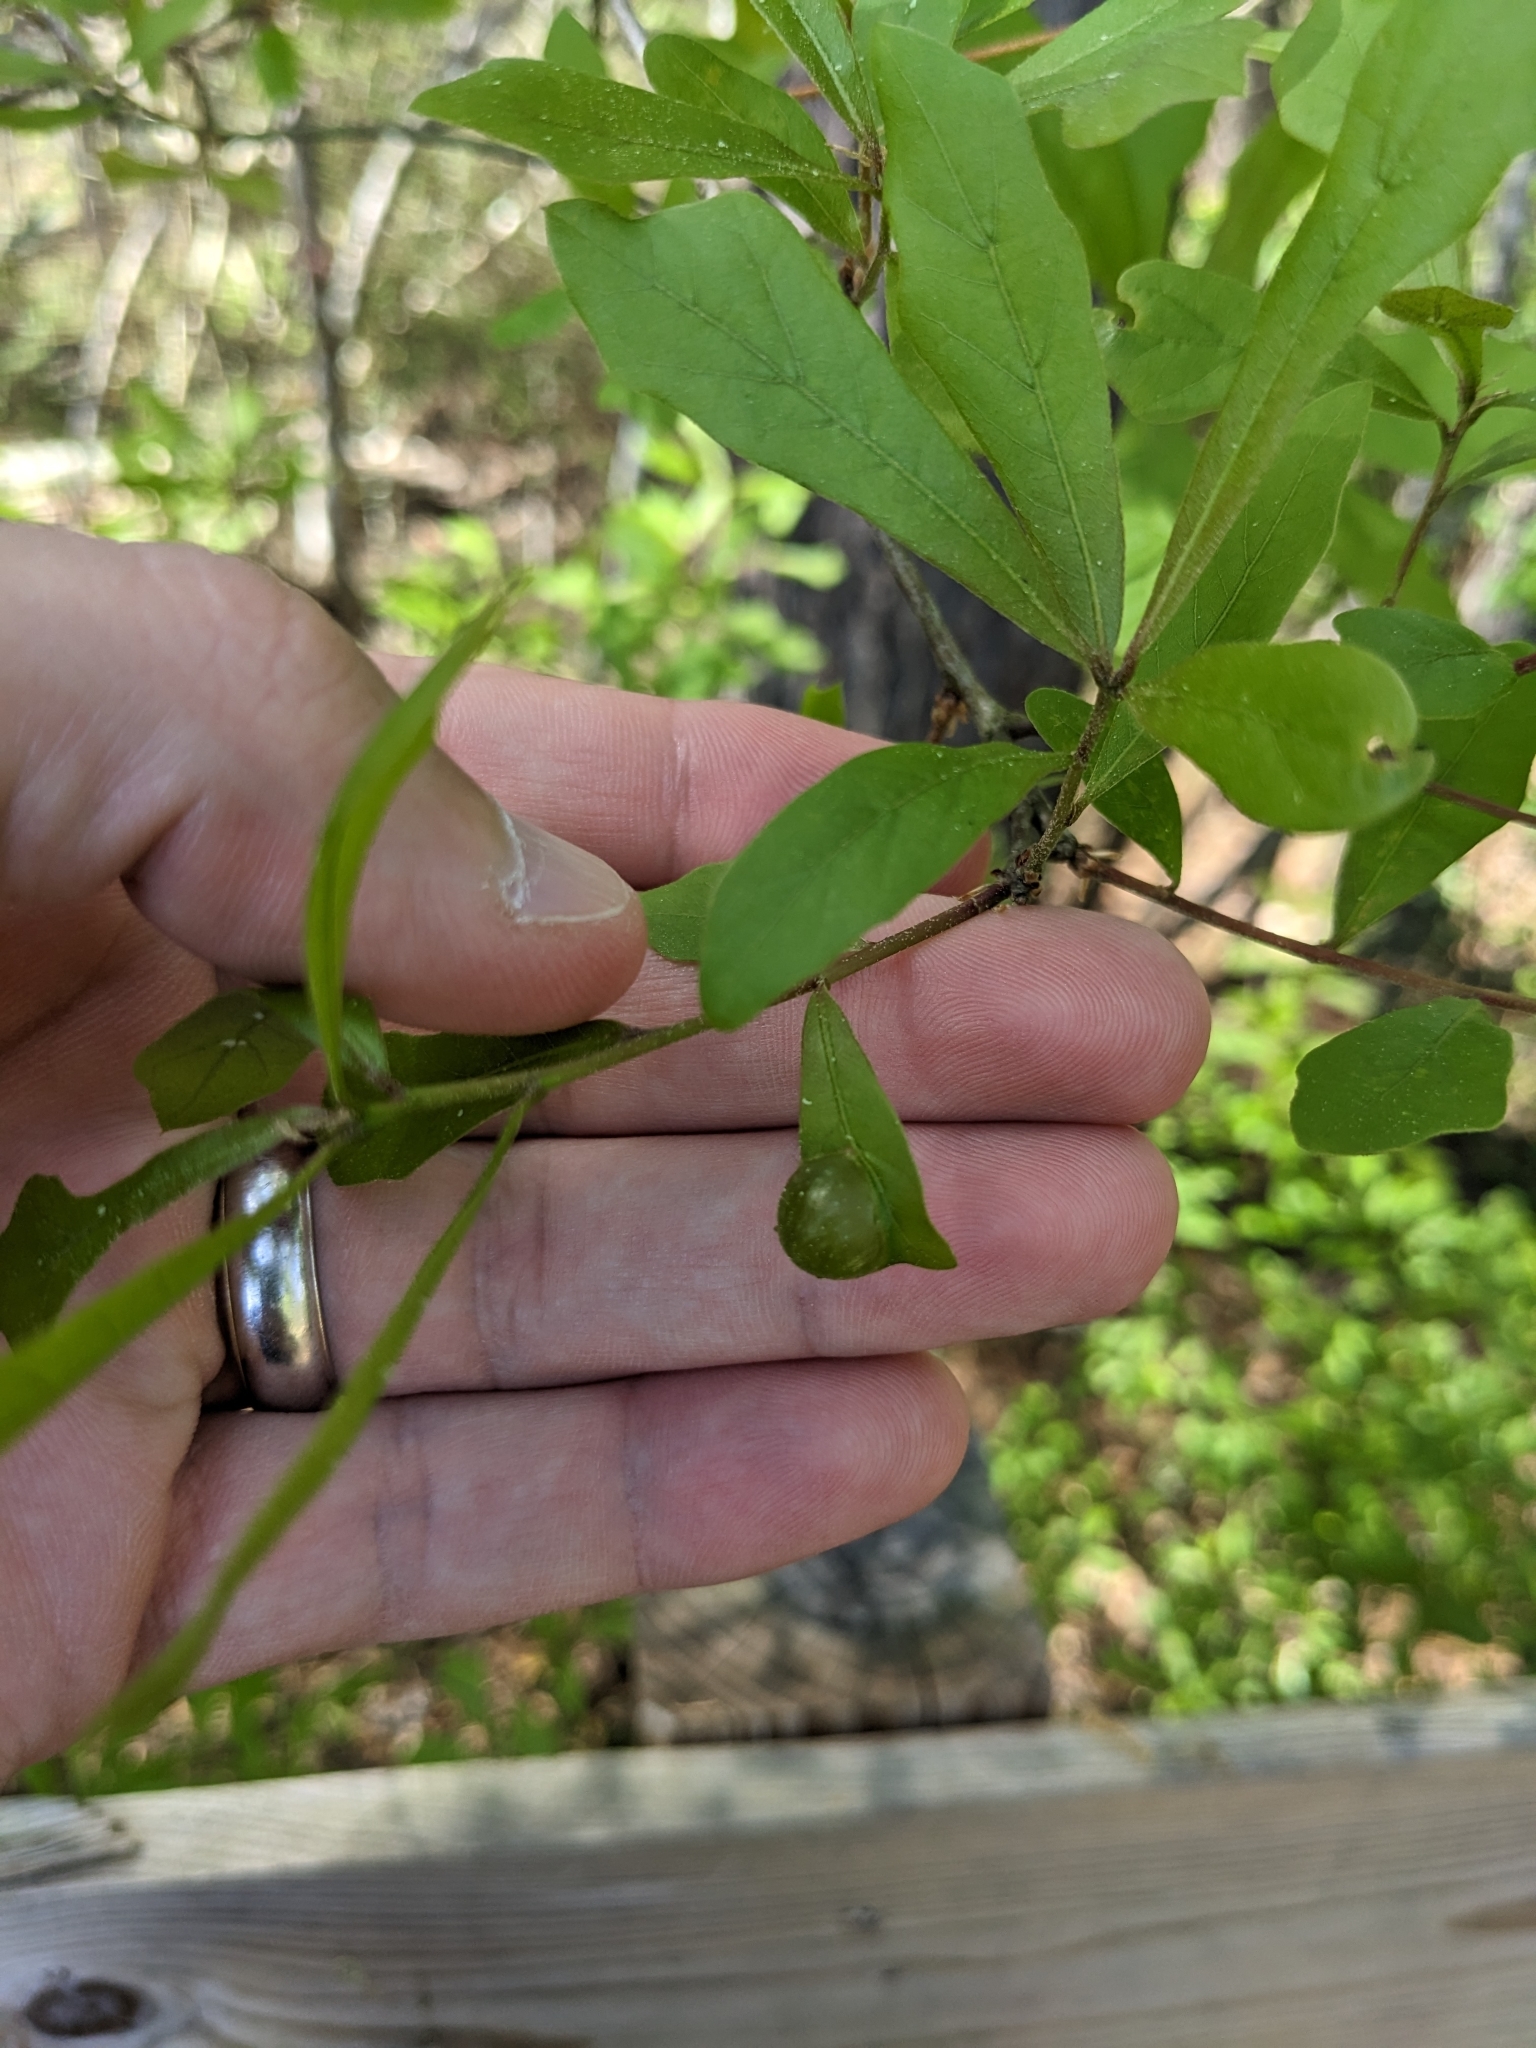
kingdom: Animalia
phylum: Arthropoda
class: Insecta
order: Hymenoptera
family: Cynipidae
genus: Dryocosmus
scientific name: Dryocosmus quercuspalustris
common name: Succulent oak gall wasp
